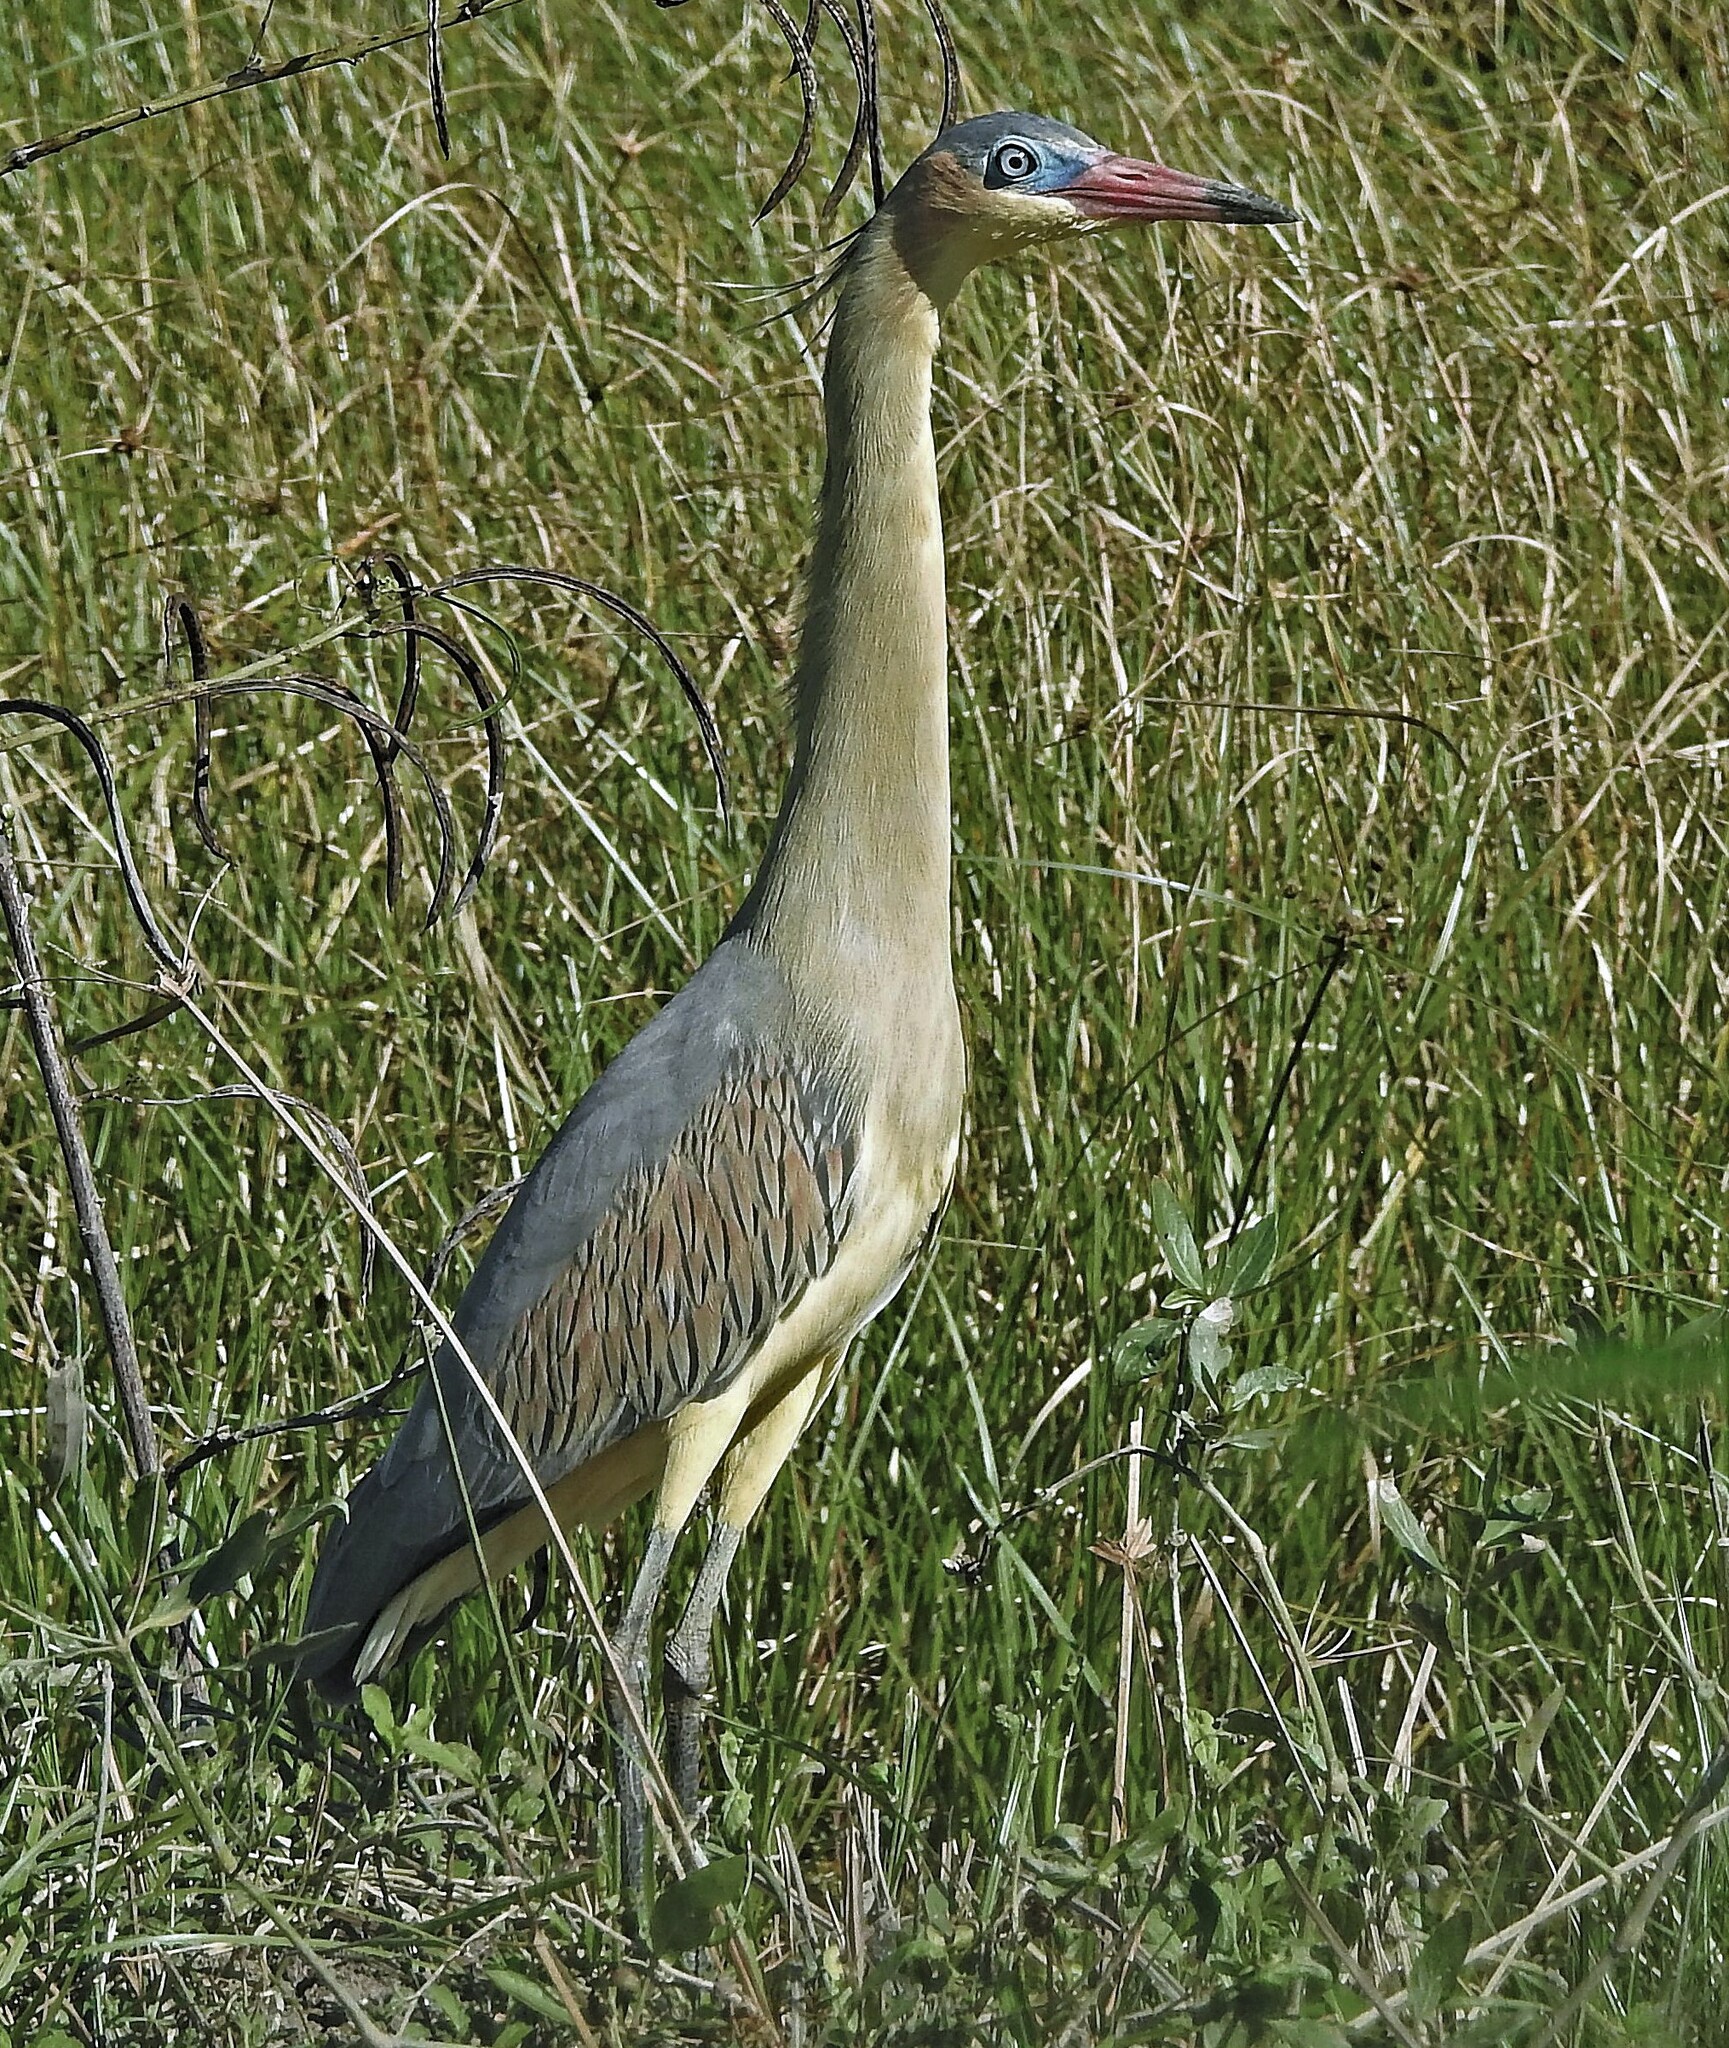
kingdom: Animalia
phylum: Chordata
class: Aves
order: Pelecaniformes
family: Ardeidae
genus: Syrigma
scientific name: Syrigma sibilatrix
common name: Whistling heron
